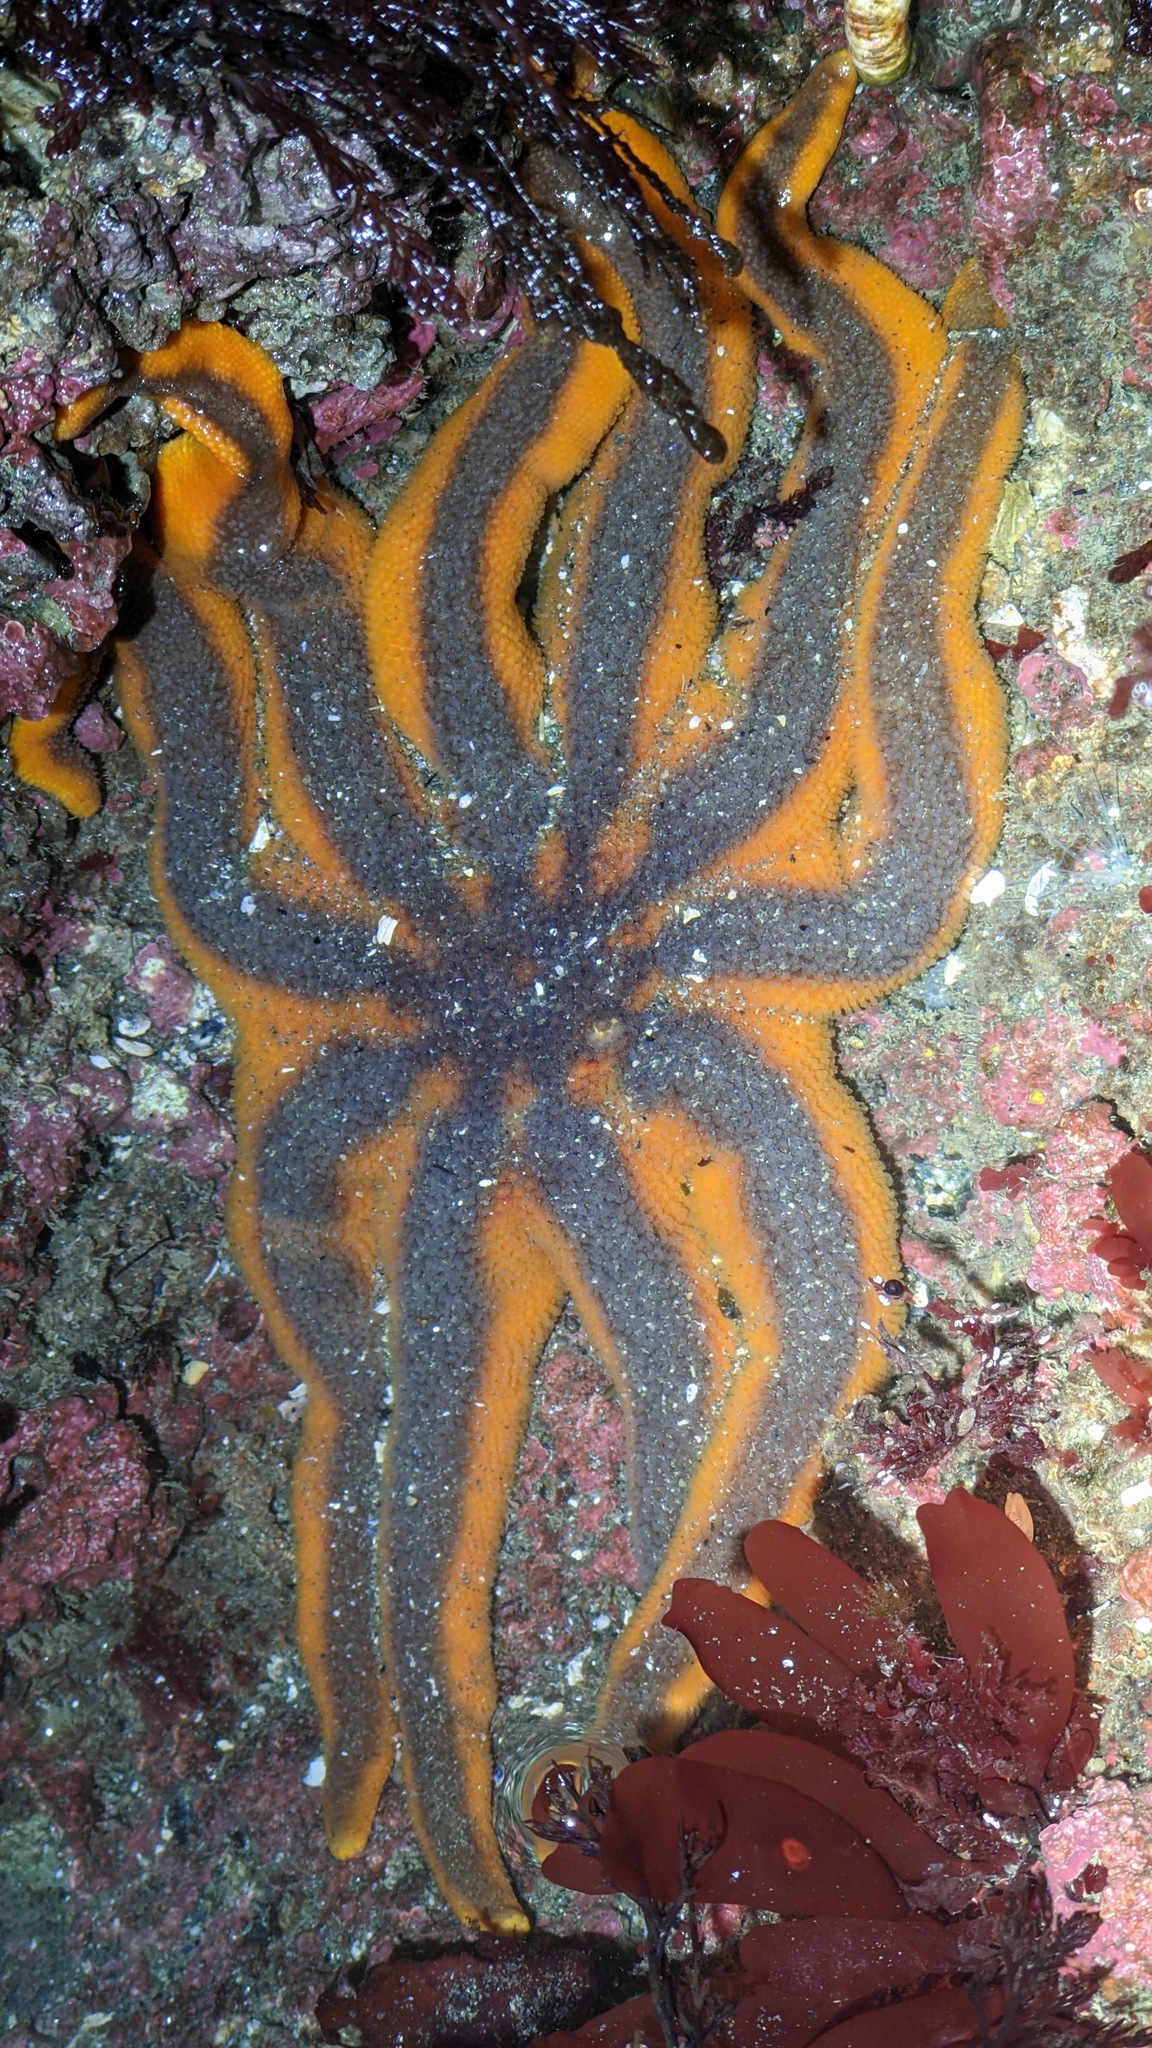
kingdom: Animalia
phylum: Echinodermata
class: Asteroidea
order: Valvatida
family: Solasteridae
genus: Solaster
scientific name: Solaster stimpsoni
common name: Orange sun star
